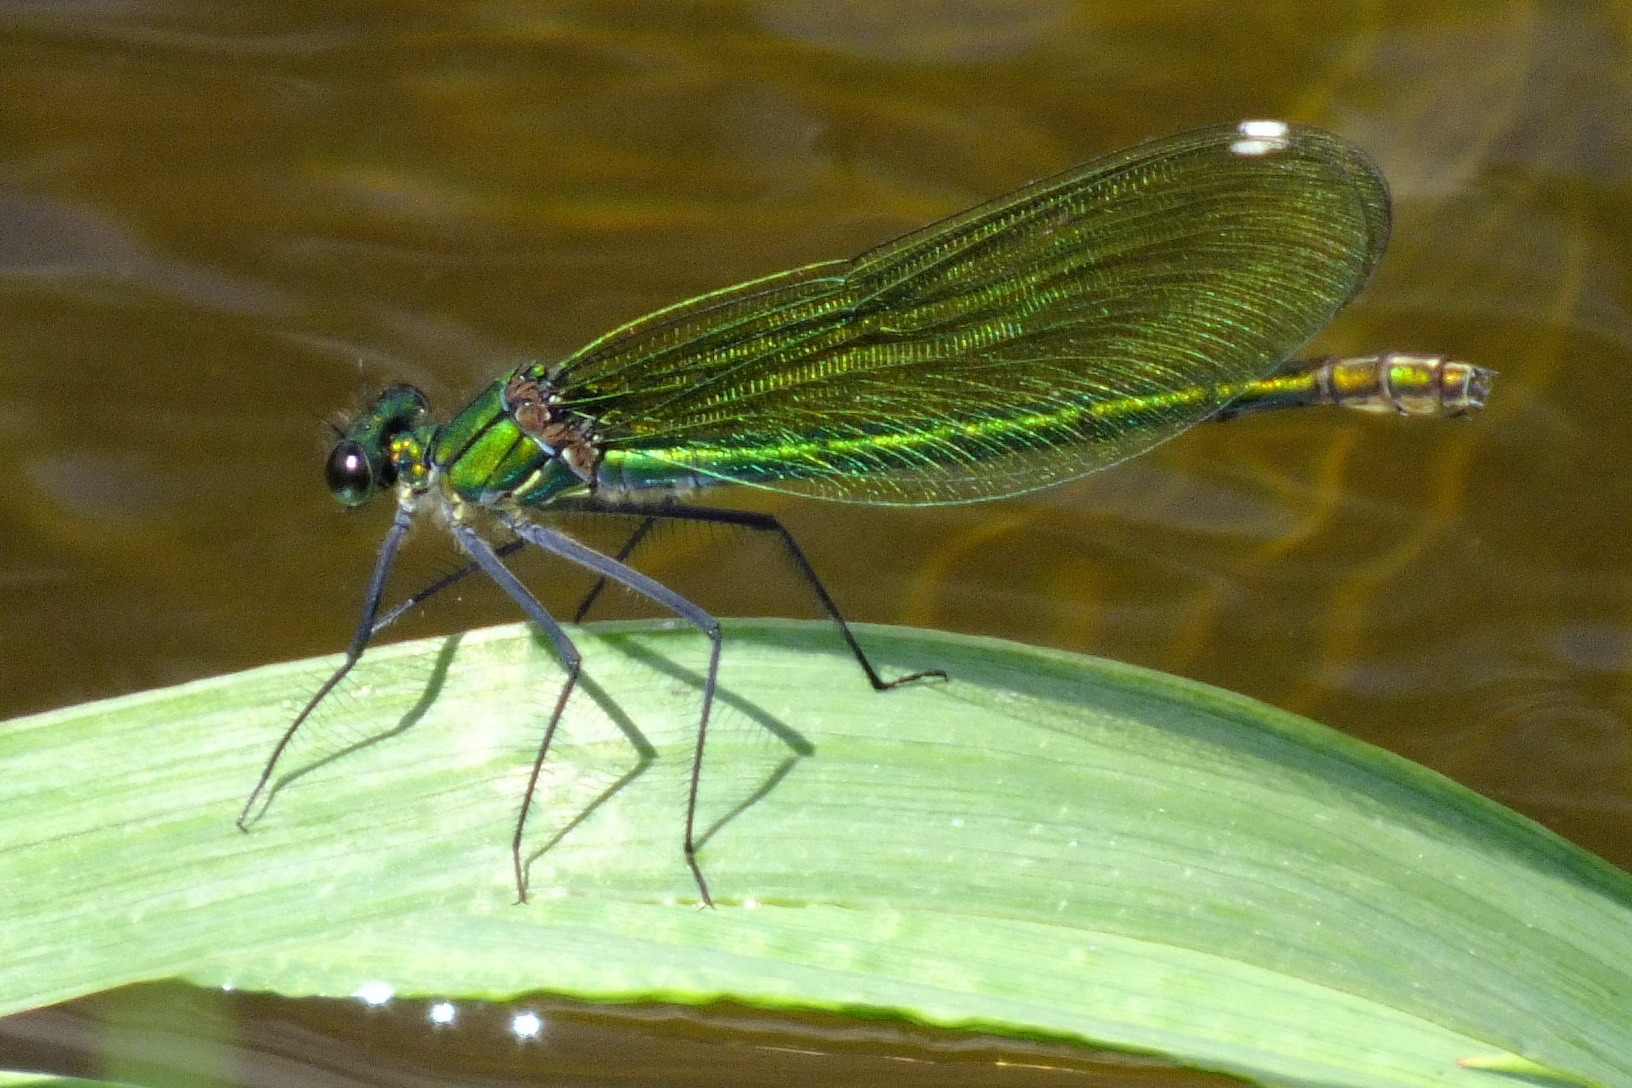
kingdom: Animalia
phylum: Arthropoda
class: Insecta
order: Odonata
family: Calopterygidae
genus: Calopteryx
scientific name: Calopteryx splendens
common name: Banded demoiselle
